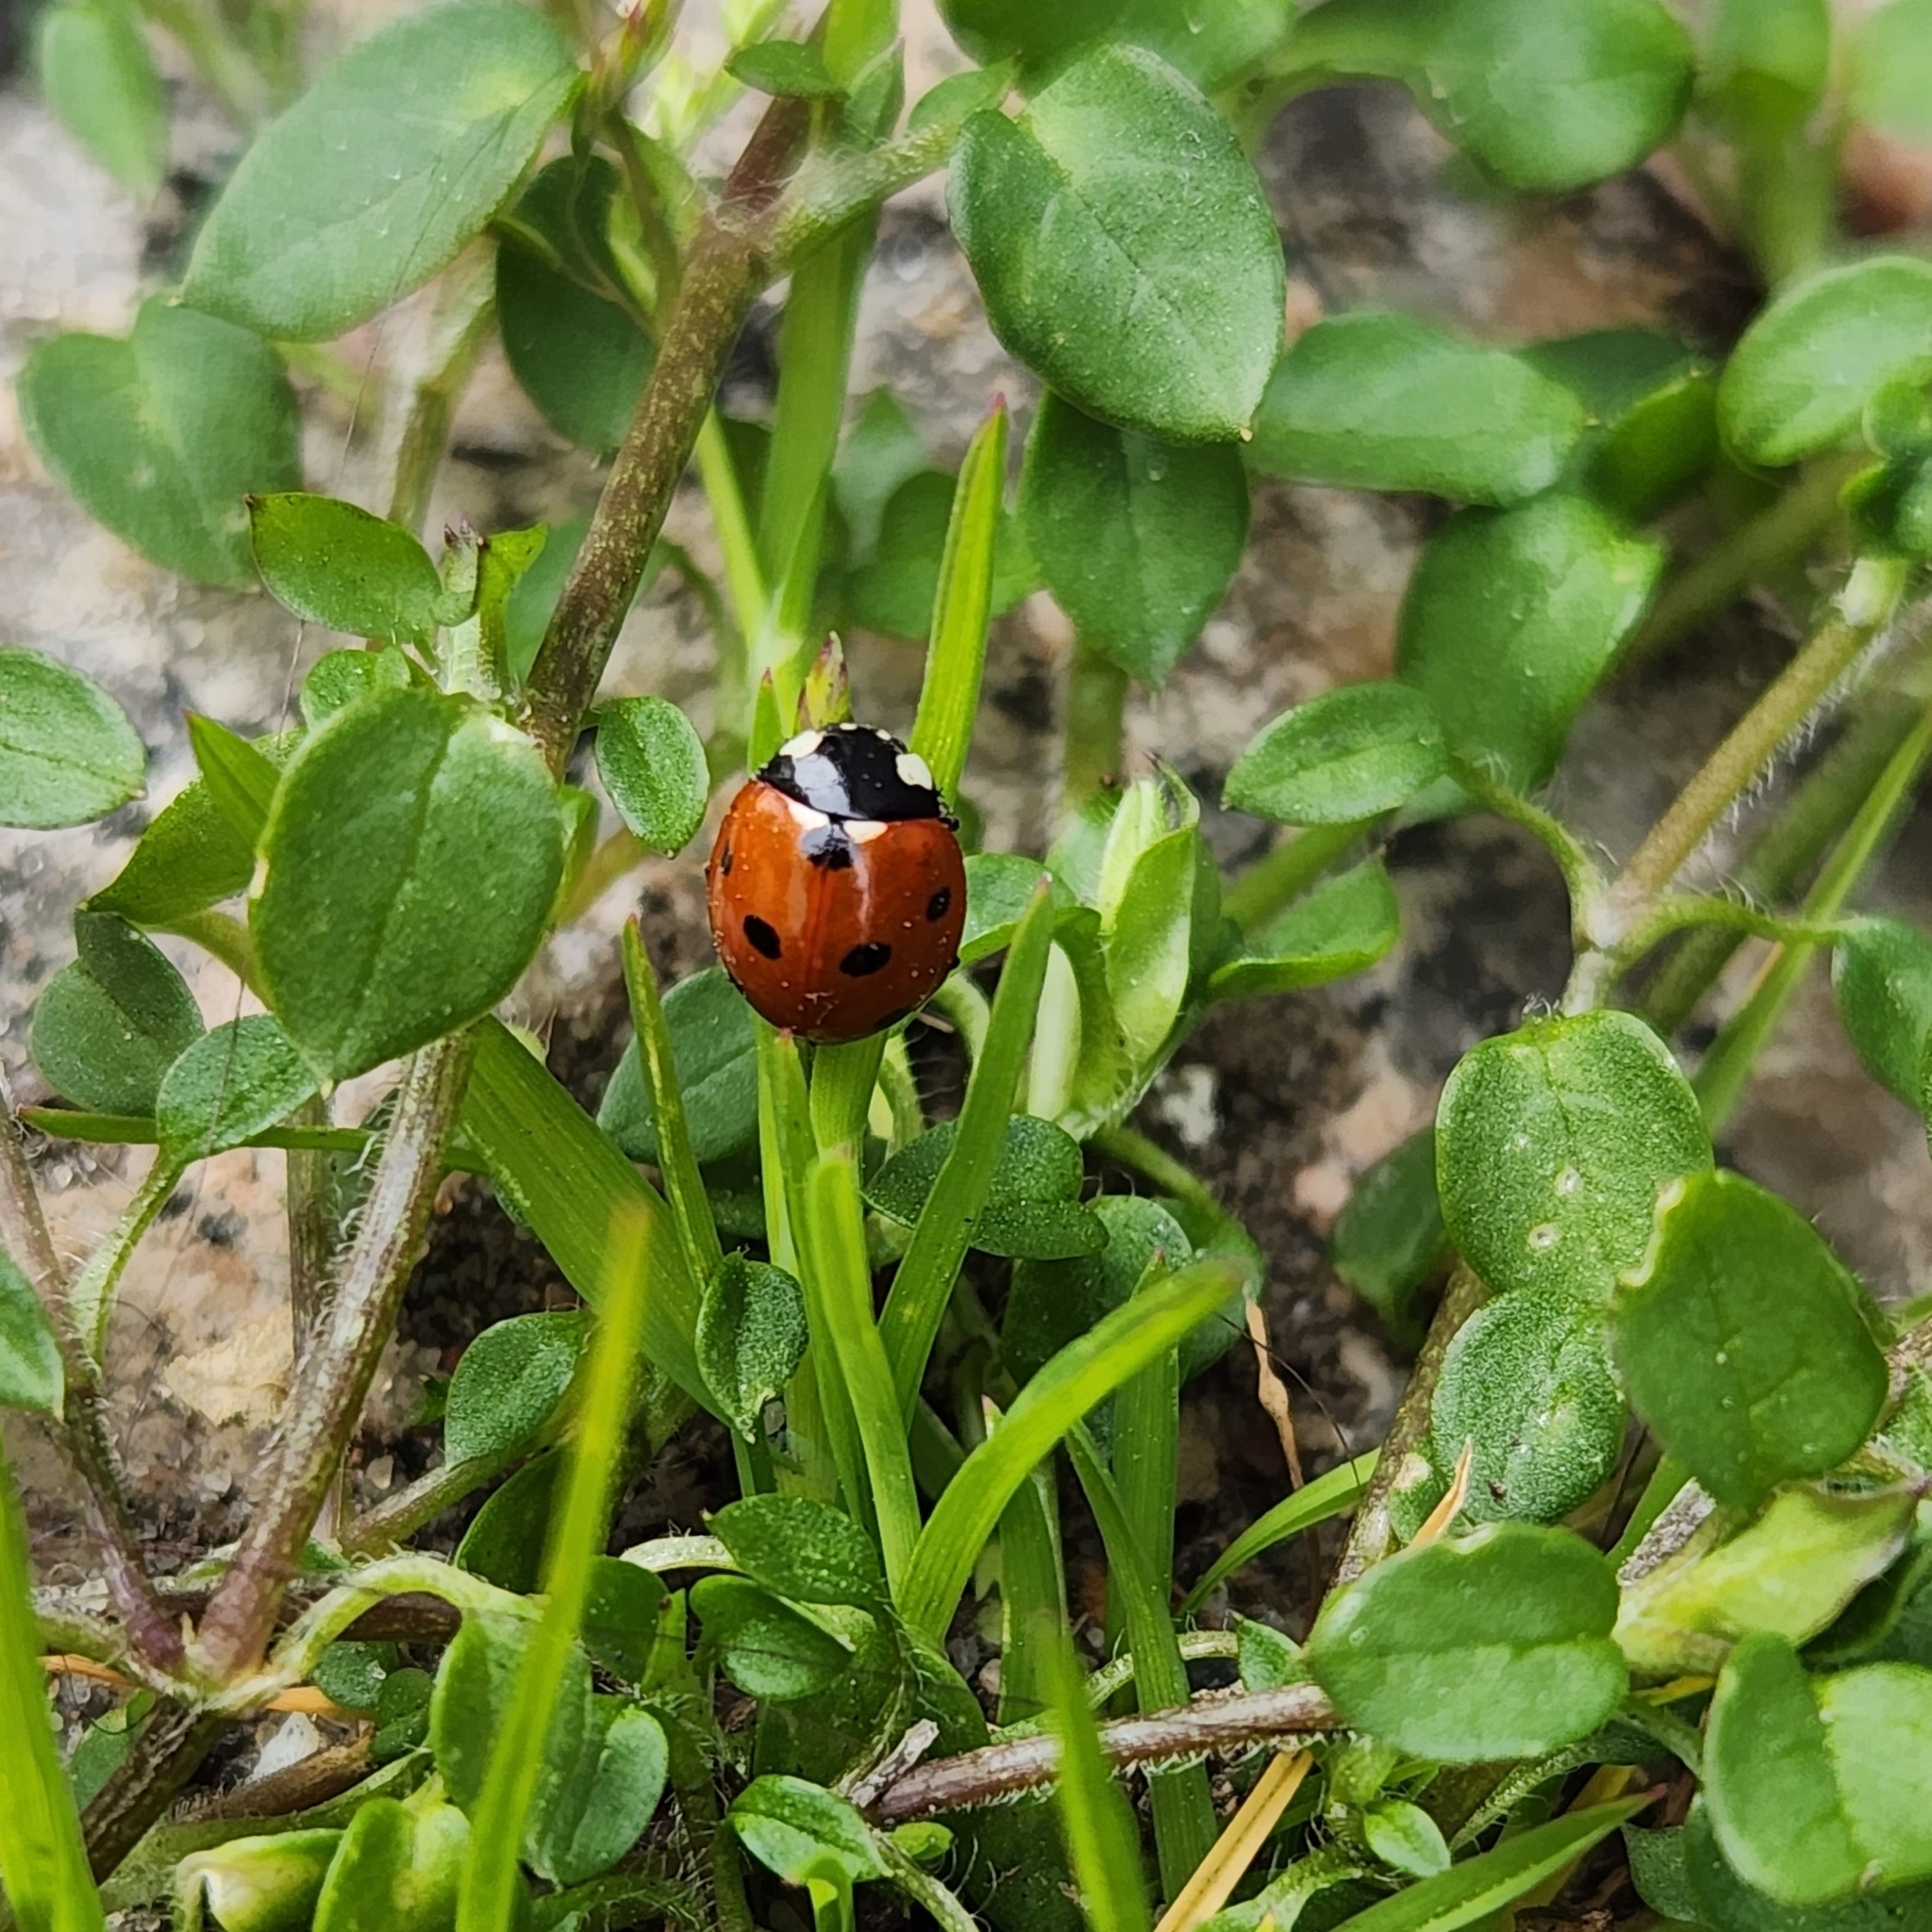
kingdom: Animalia
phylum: Arthropoda
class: Insecta
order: Coleoptera
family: Coccinellidae
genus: Coccinella
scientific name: Coccinella septempunctata
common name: Sevenspotted lady beetle
